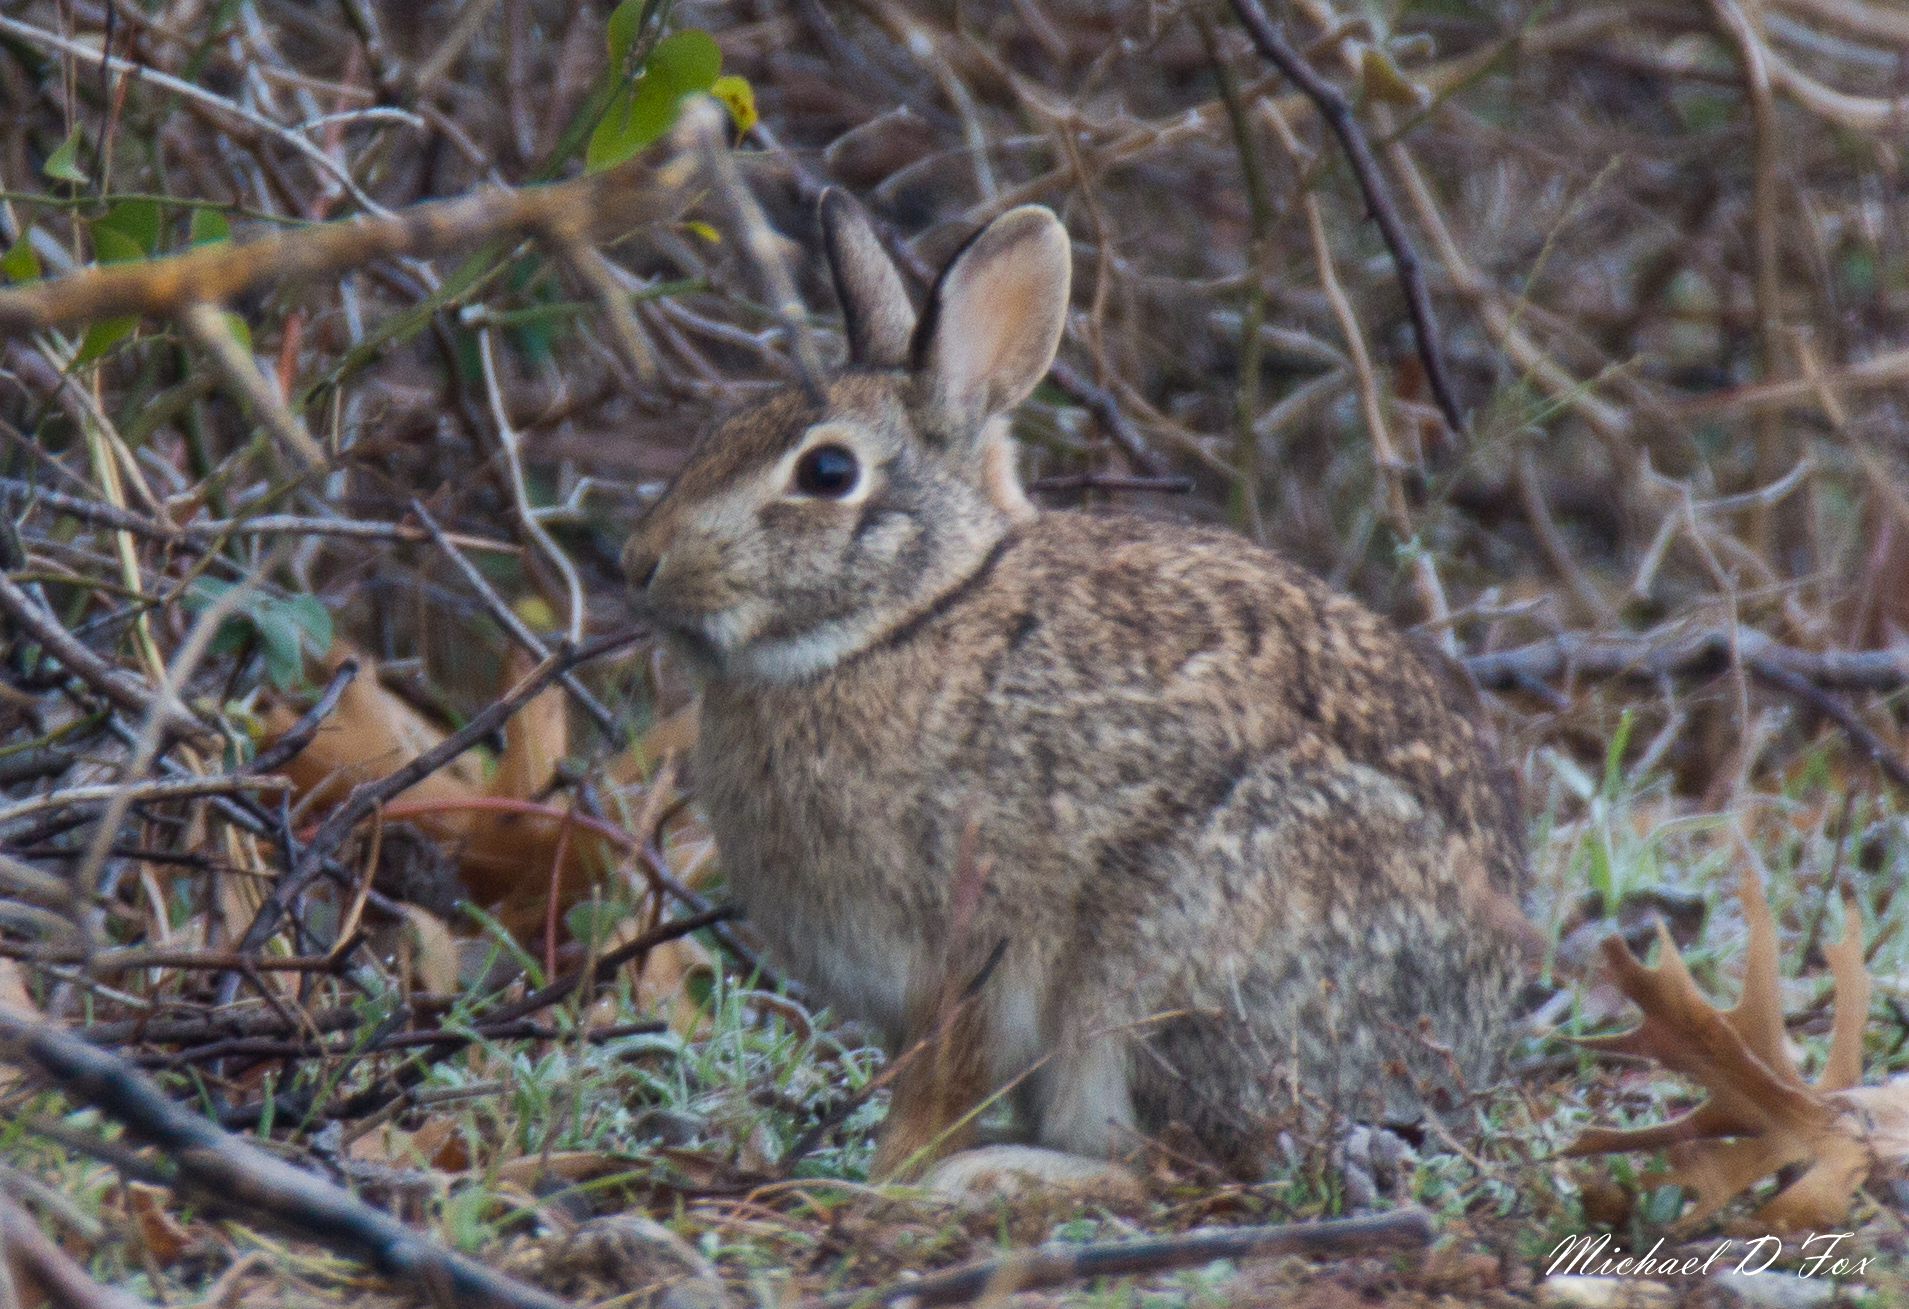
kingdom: Animalia
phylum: Chordata
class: Mammalia
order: Lagomorpha
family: Leporidae
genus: Sylvilagus
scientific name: Sylvilagus floridanus
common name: Eastern cottontail
